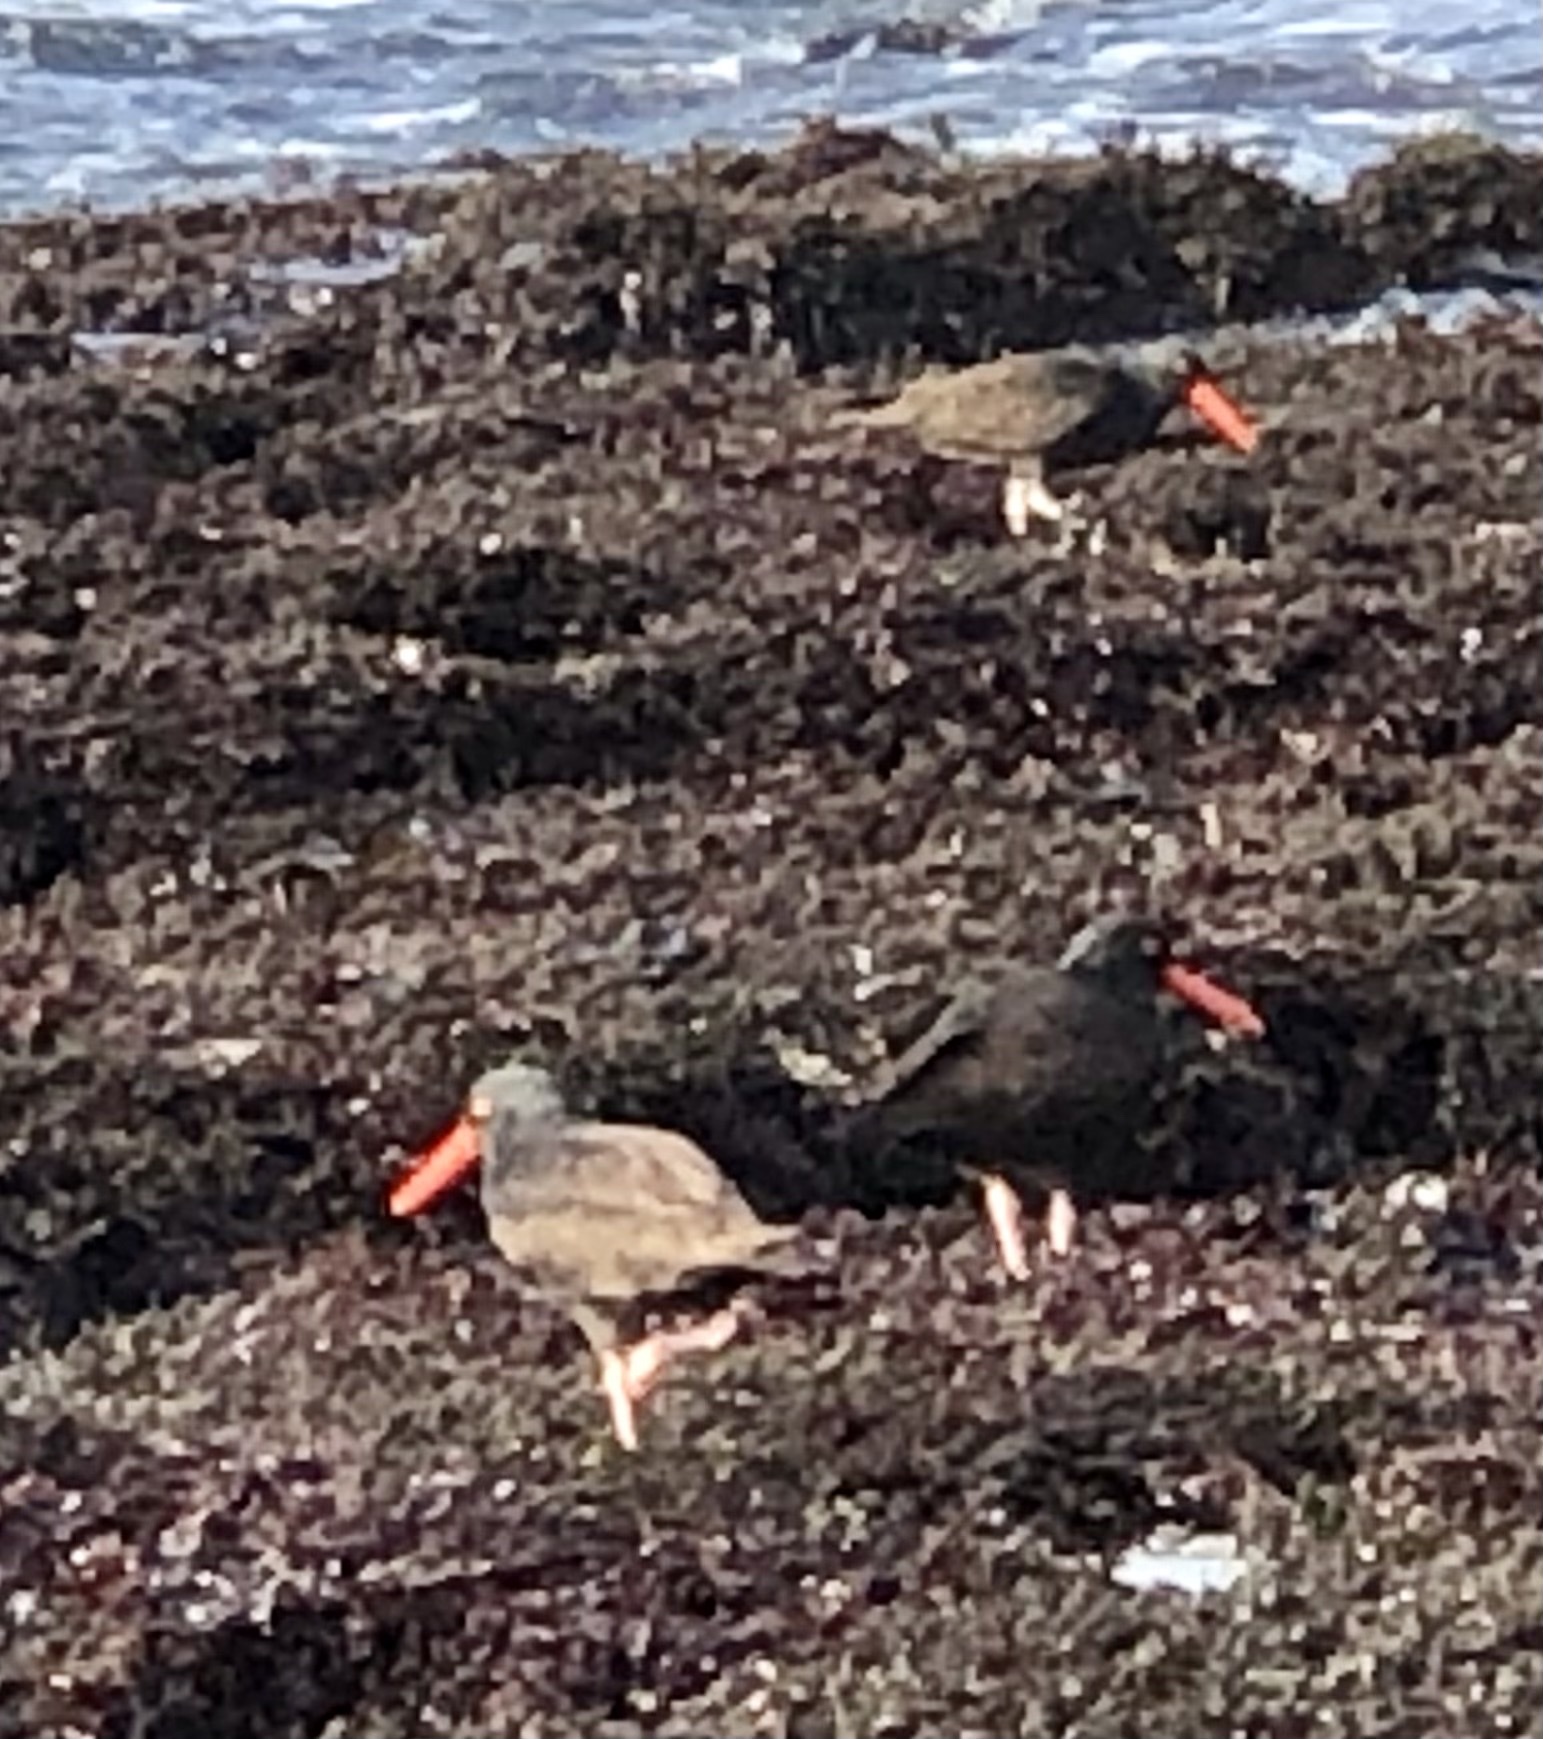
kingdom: Animalia
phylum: Chordata
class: Aves
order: Charadriiformes
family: Haematopodidae
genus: Haematopus
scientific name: Haematopus bachmani
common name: Black oystercatcher
